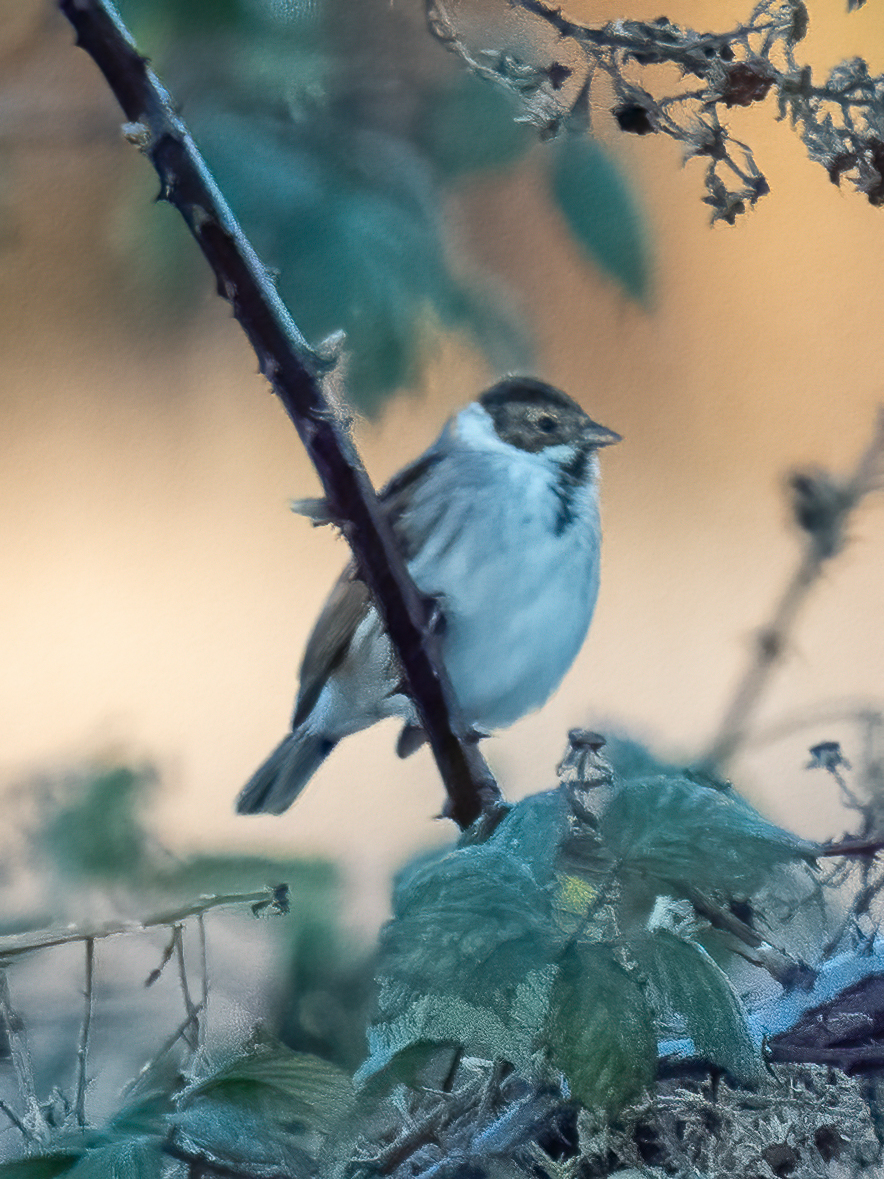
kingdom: Animalia
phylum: Chordata
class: Aves
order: Passeriformes
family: Emberizidae
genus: Emberiza
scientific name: Emberiza schoeniclus
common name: Reed bunting
